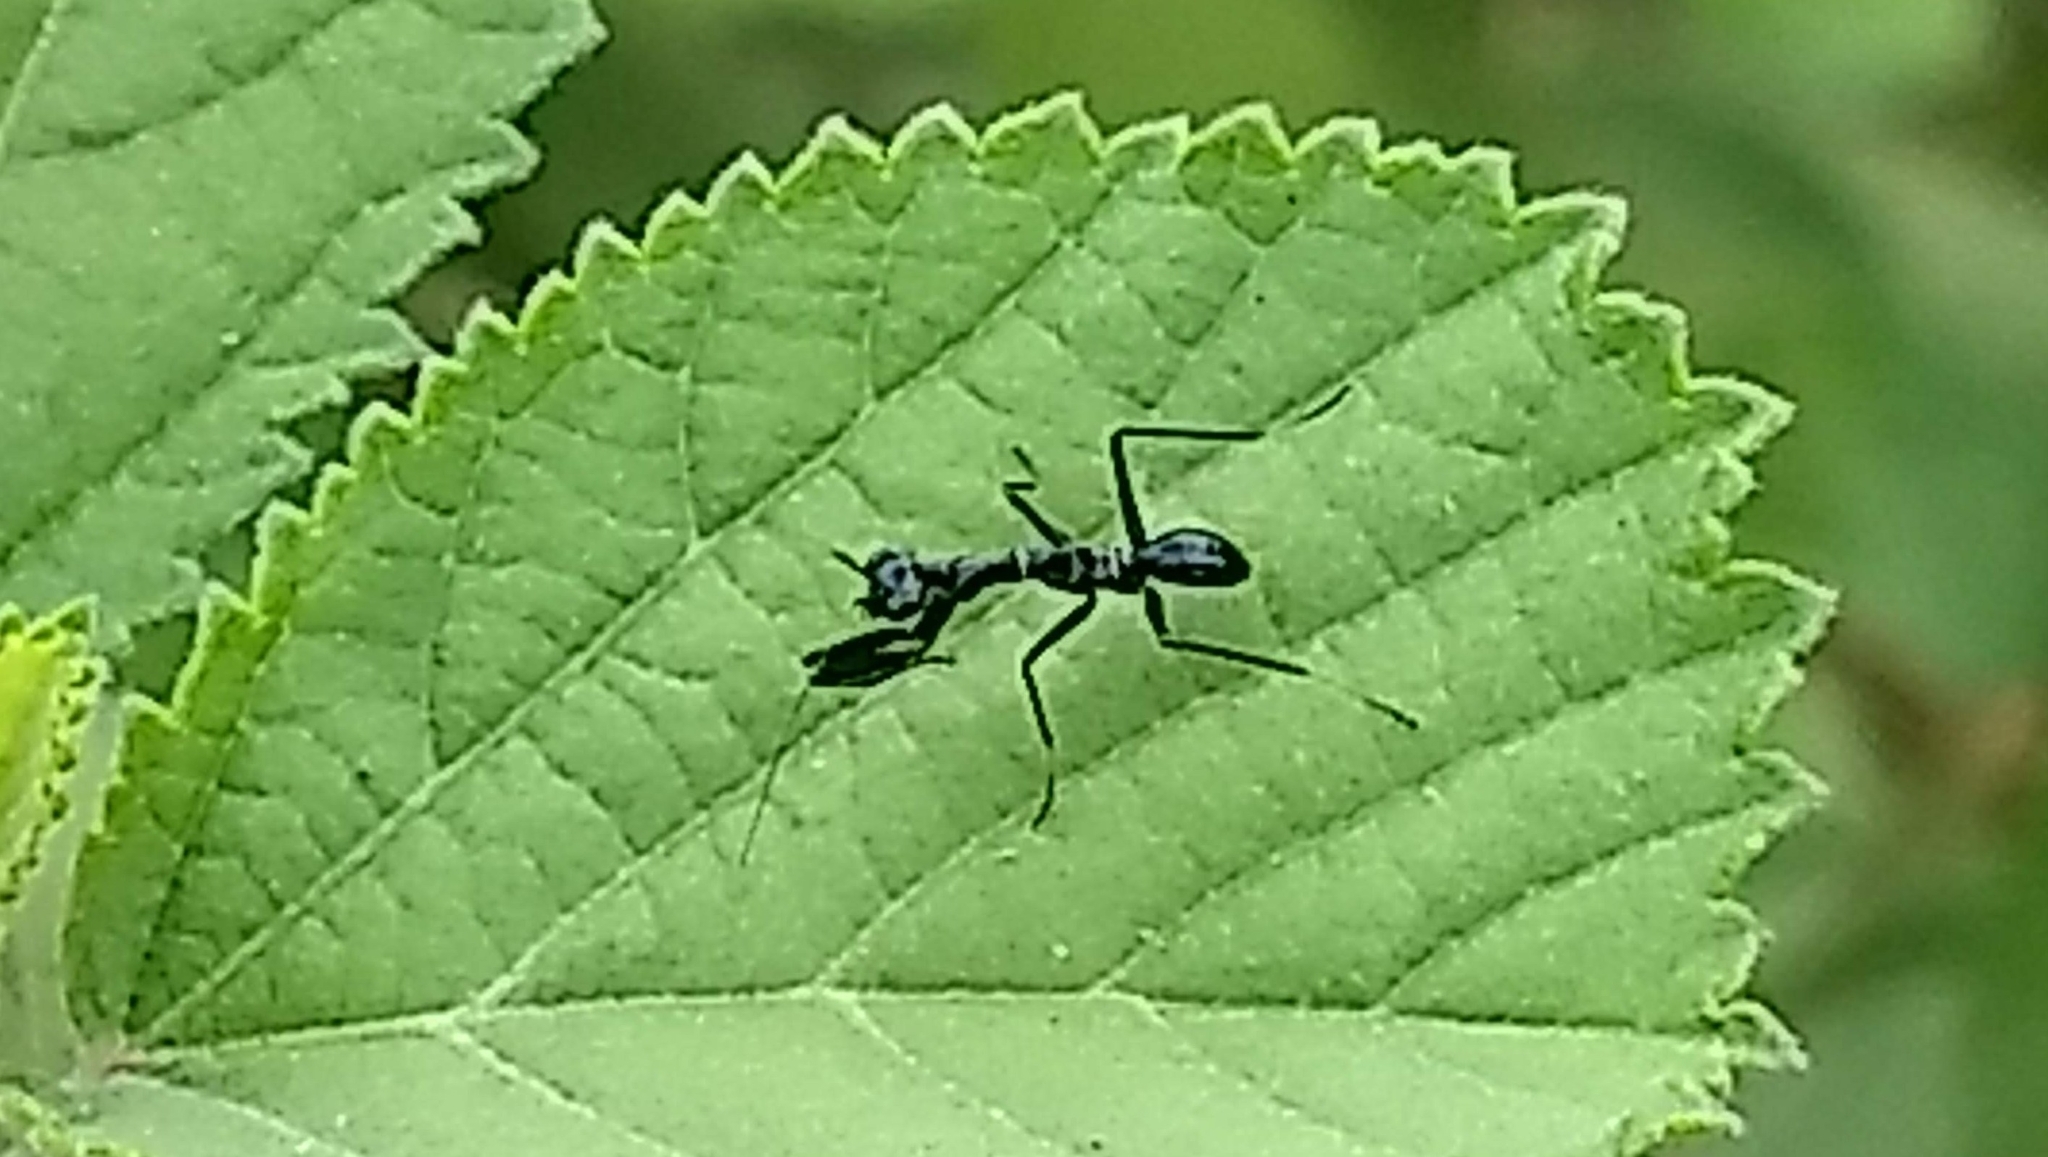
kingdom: Animalia
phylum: Arthropoda
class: Insecta
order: Mantodea
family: Hymenopodidae
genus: Odontomantis
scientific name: Odontomantis planiceps
